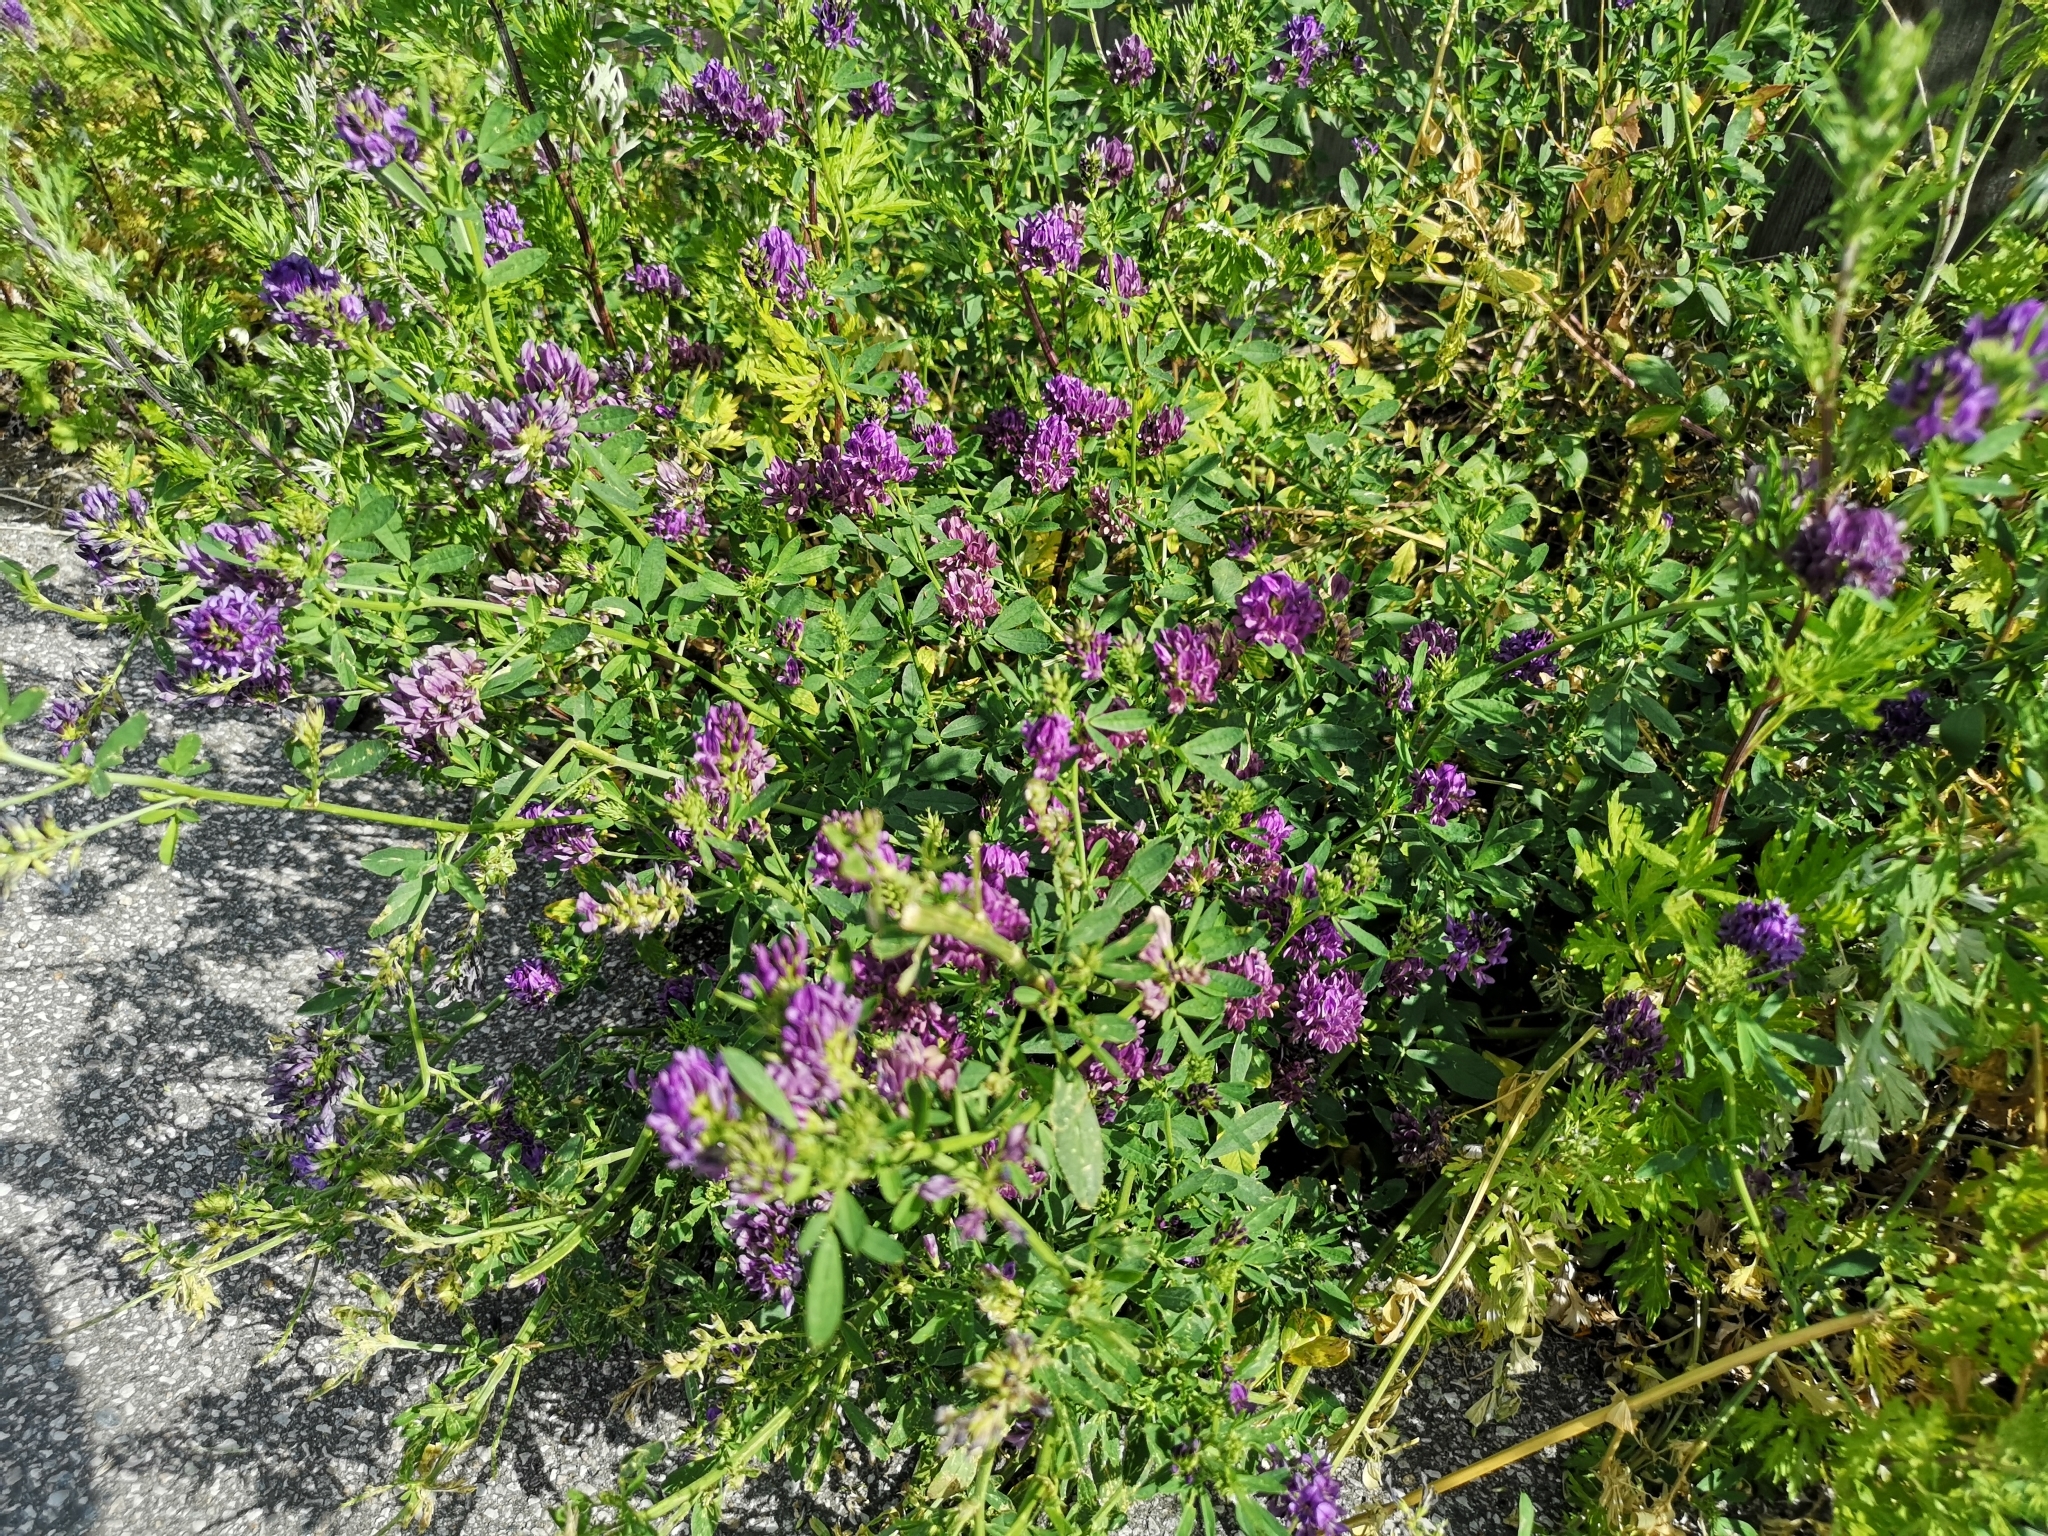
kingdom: Plantae
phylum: Tracheophyta
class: Magnoliopsida
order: Fabales
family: Fabaceae
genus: Medicago
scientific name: Medicago sativa
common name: Alfalfa
